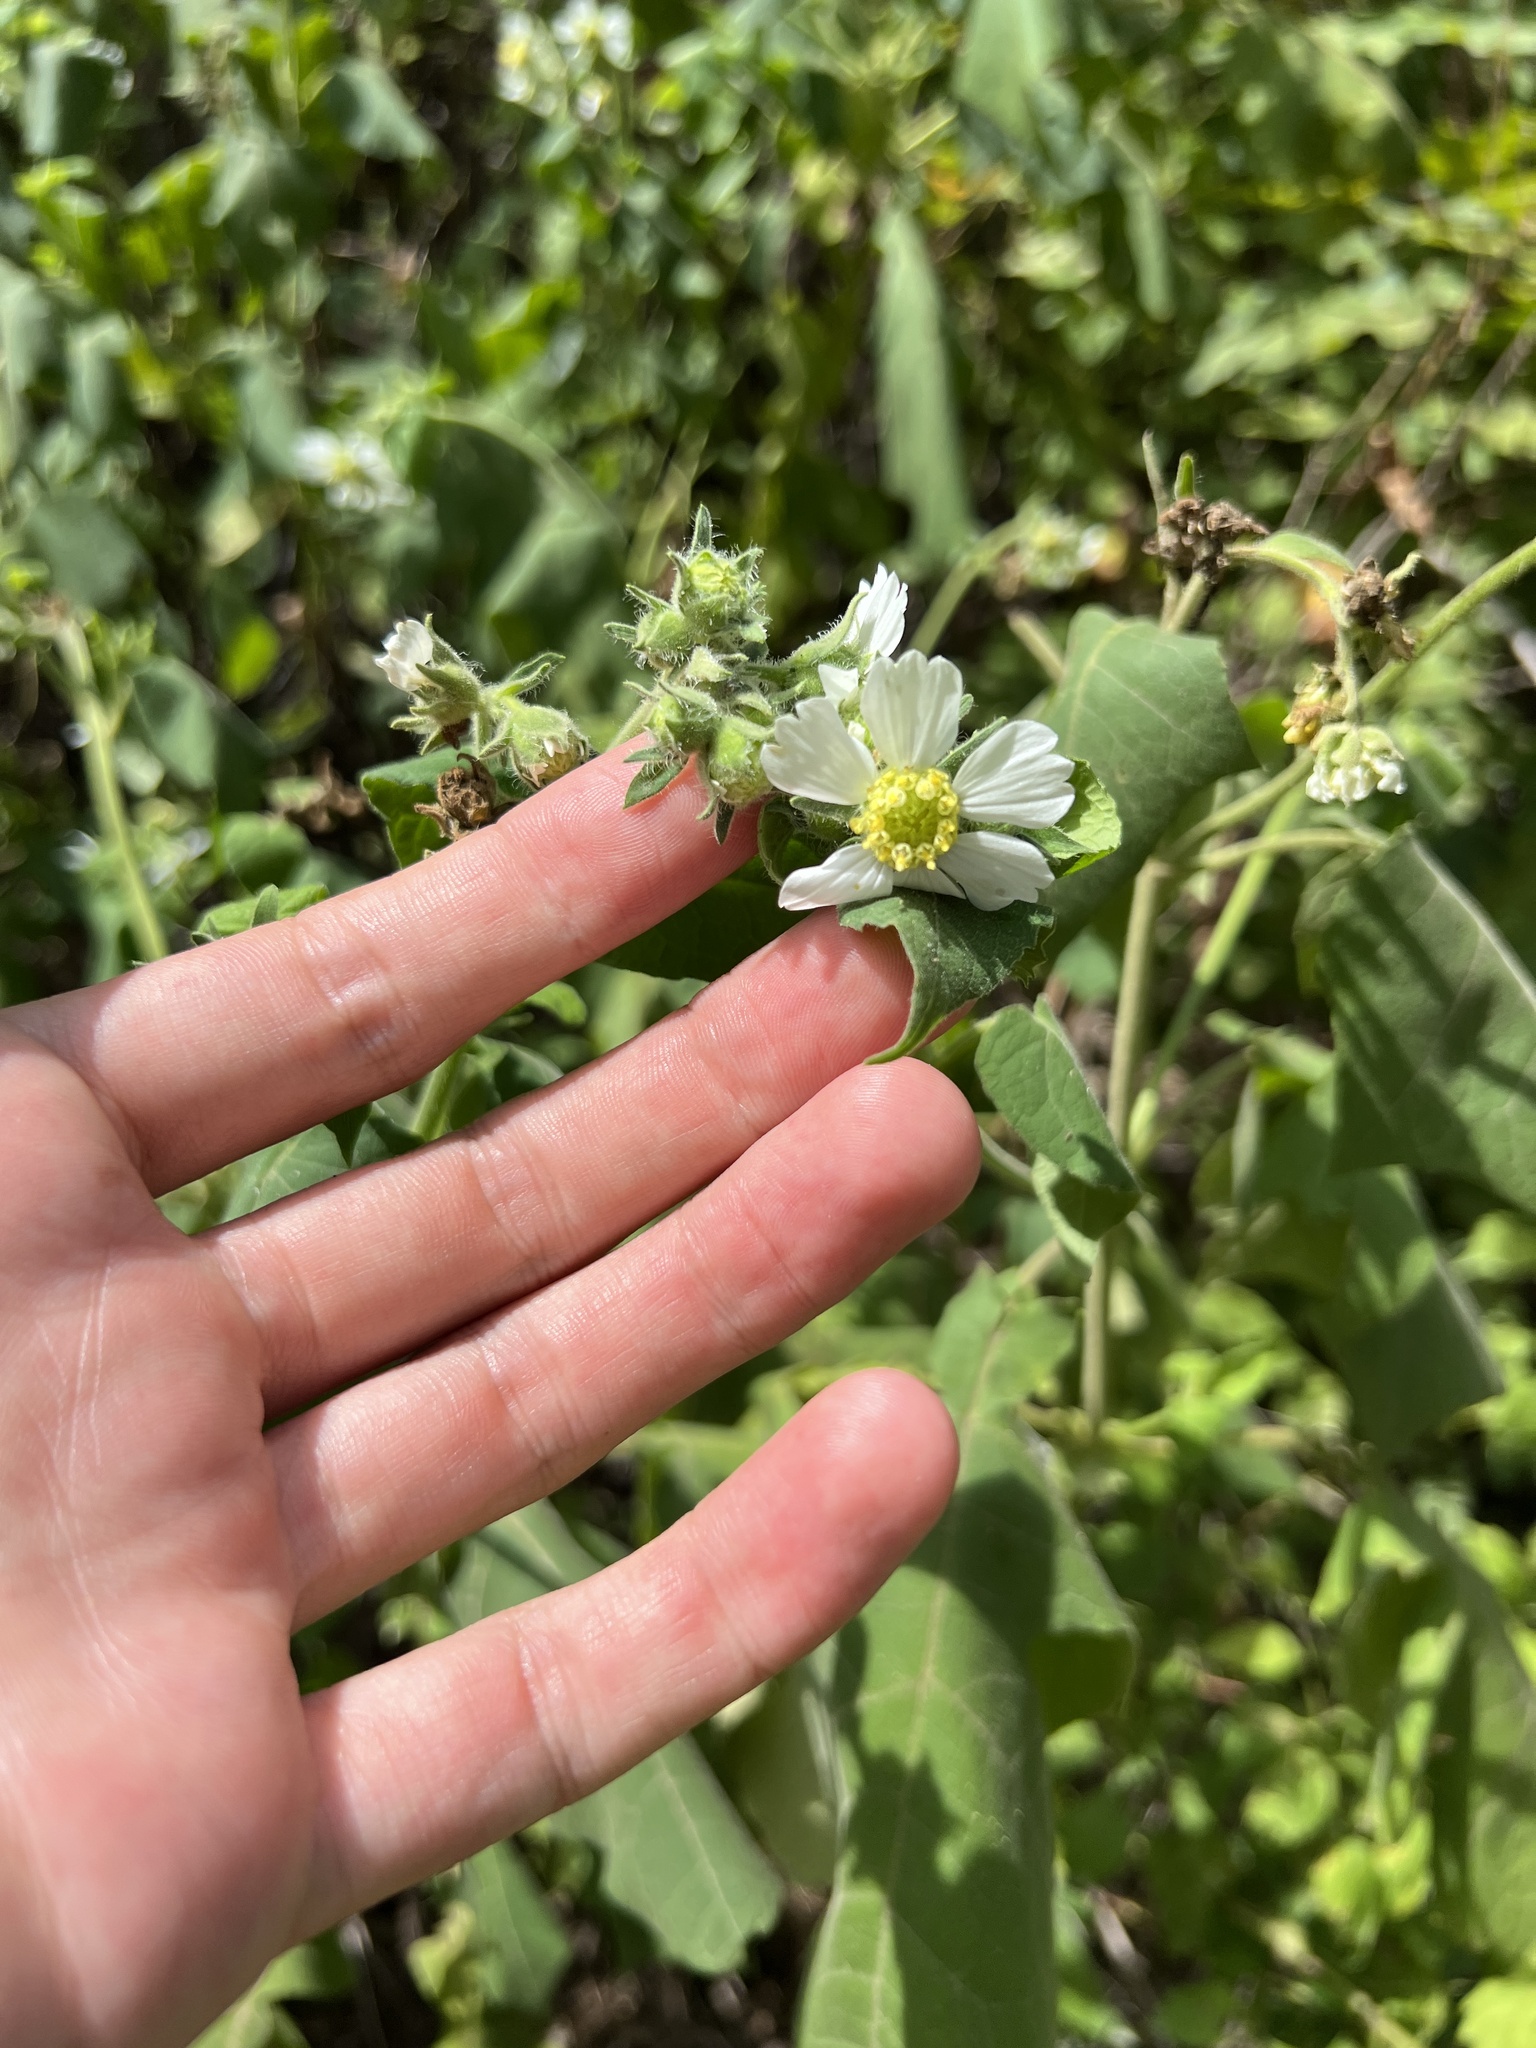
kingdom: Plantae
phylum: Tracheophyta
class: Magnoliopsida
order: Asterales
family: Asteraceae
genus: Polymnia
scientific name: Polymnia canadensis
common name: Pale-flowered leafcup
